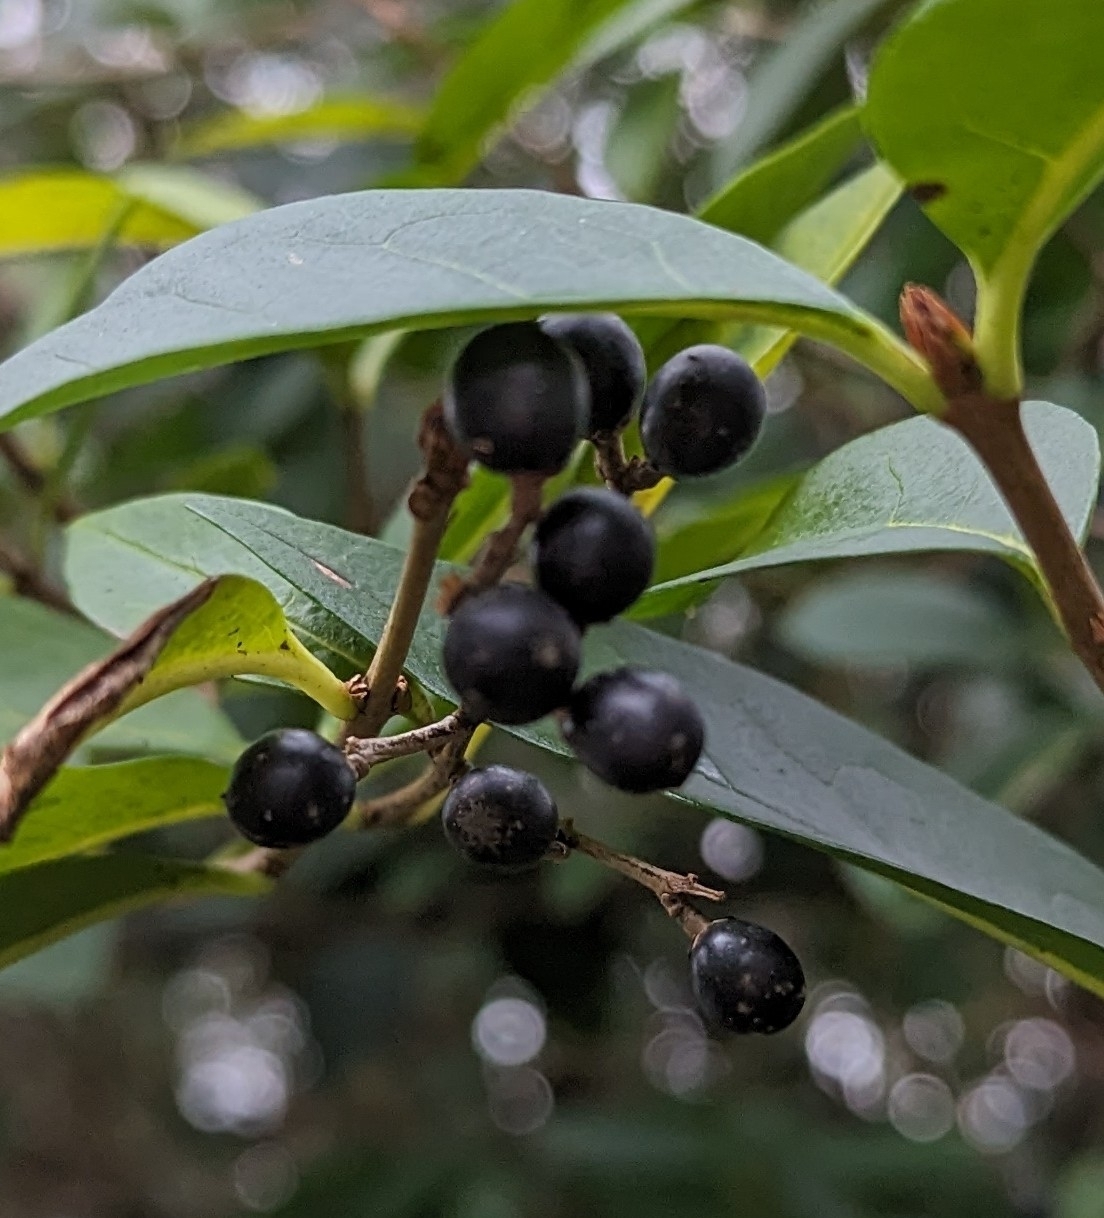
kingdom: Plantae
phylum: Tracheophyta
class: Magnoliopsida
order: Lamiales
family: Oleaceae
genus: Ligustrum
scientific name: Ligustrum ovalifolium
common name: California privet
